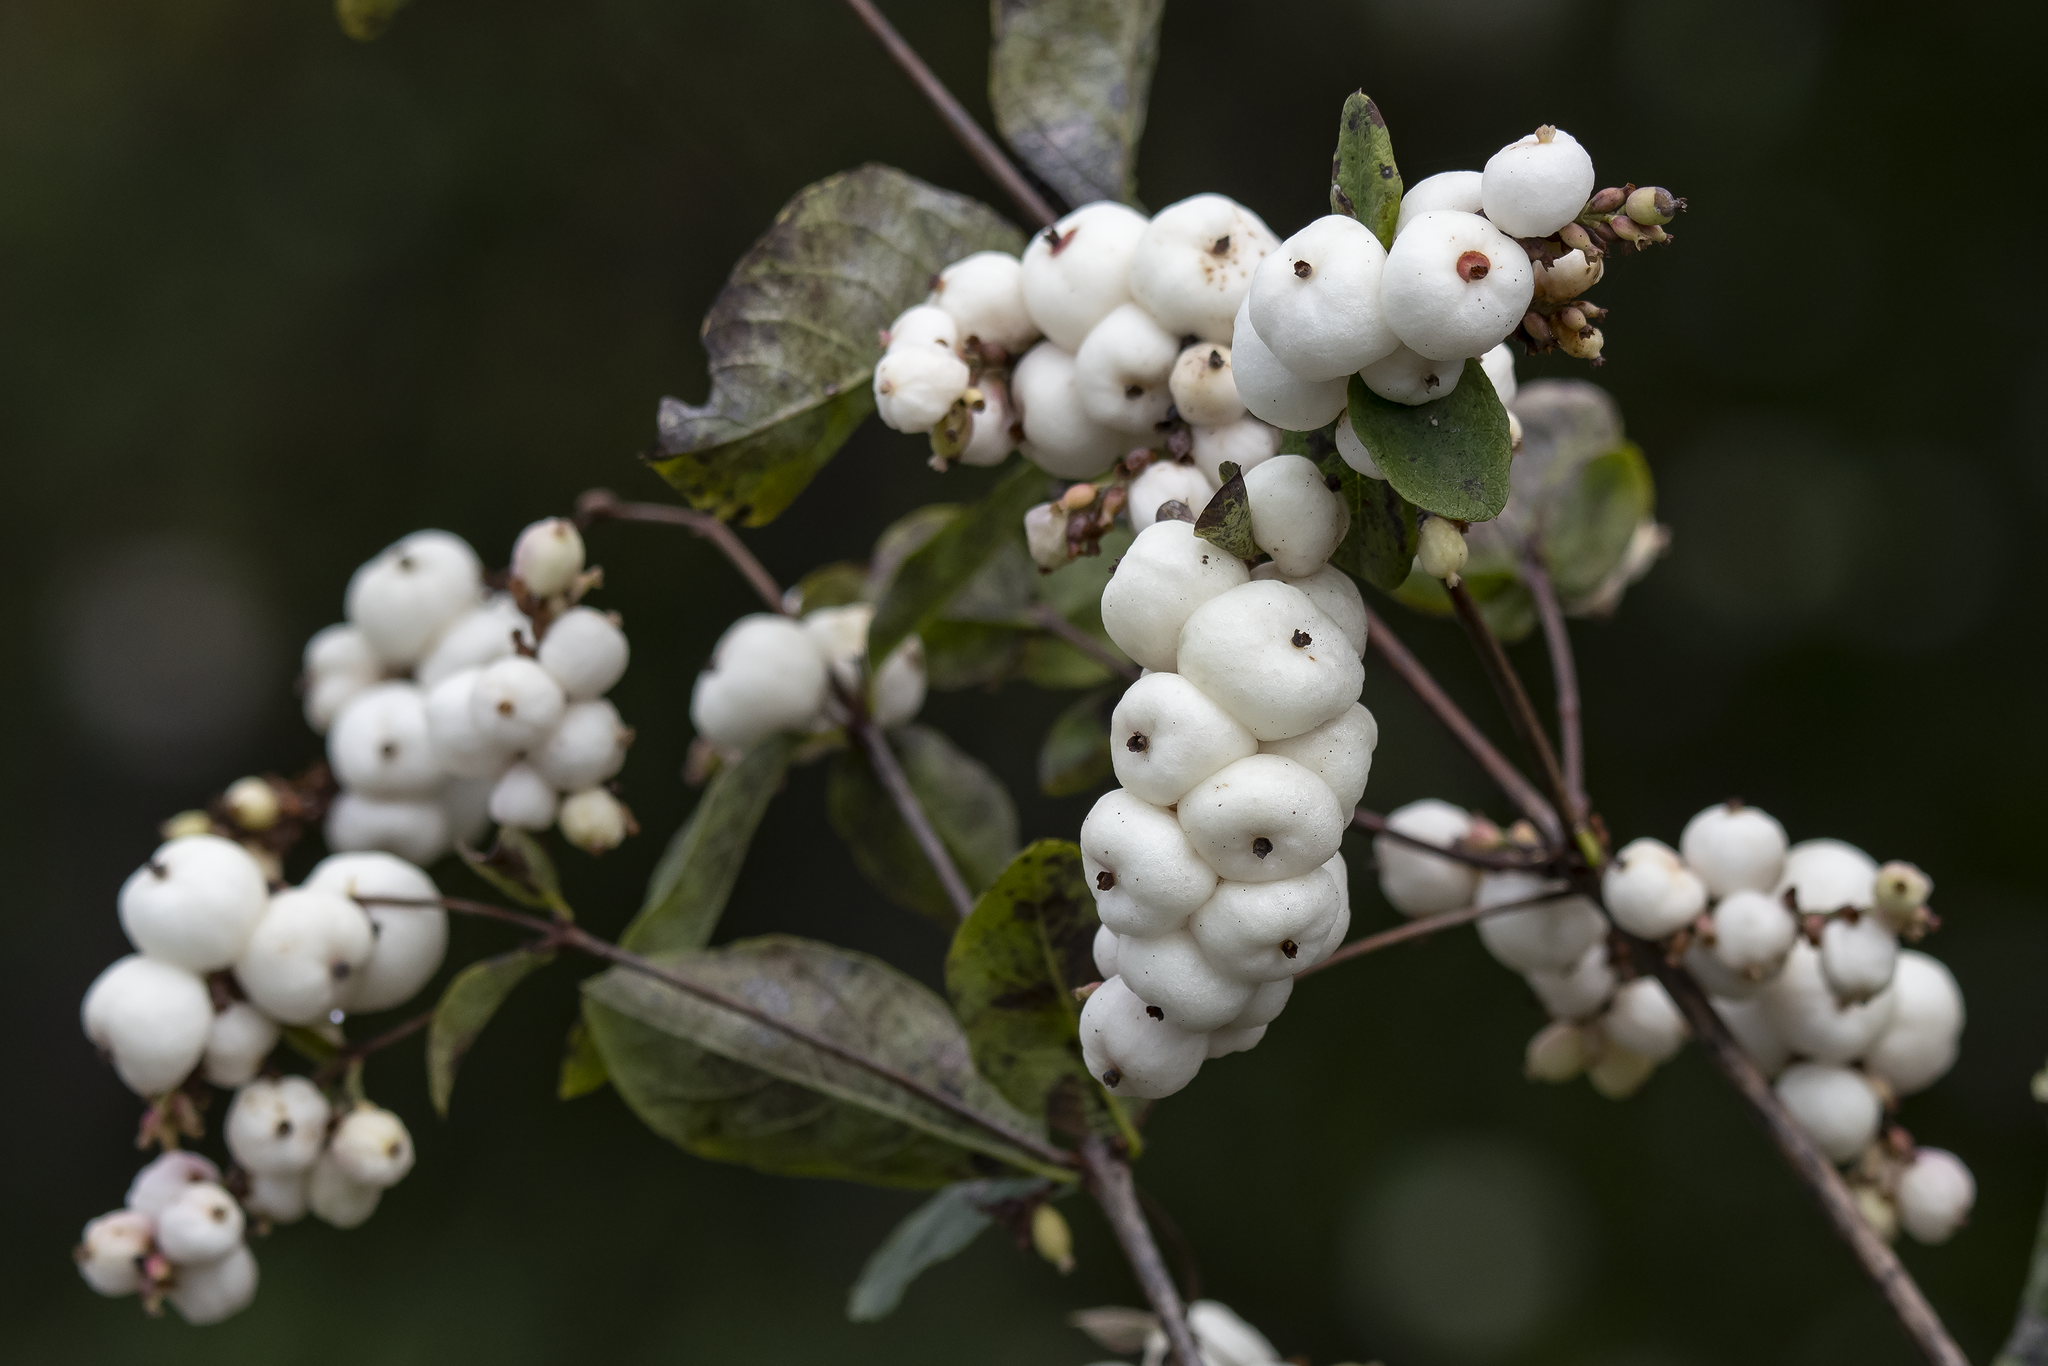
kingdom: Plantae
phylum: Tracheophyta
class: Magnoliopsida
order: Dipsacales
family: Caprifoliaceae
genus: Symphoricarpos
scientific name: Symphoricarpos albus
